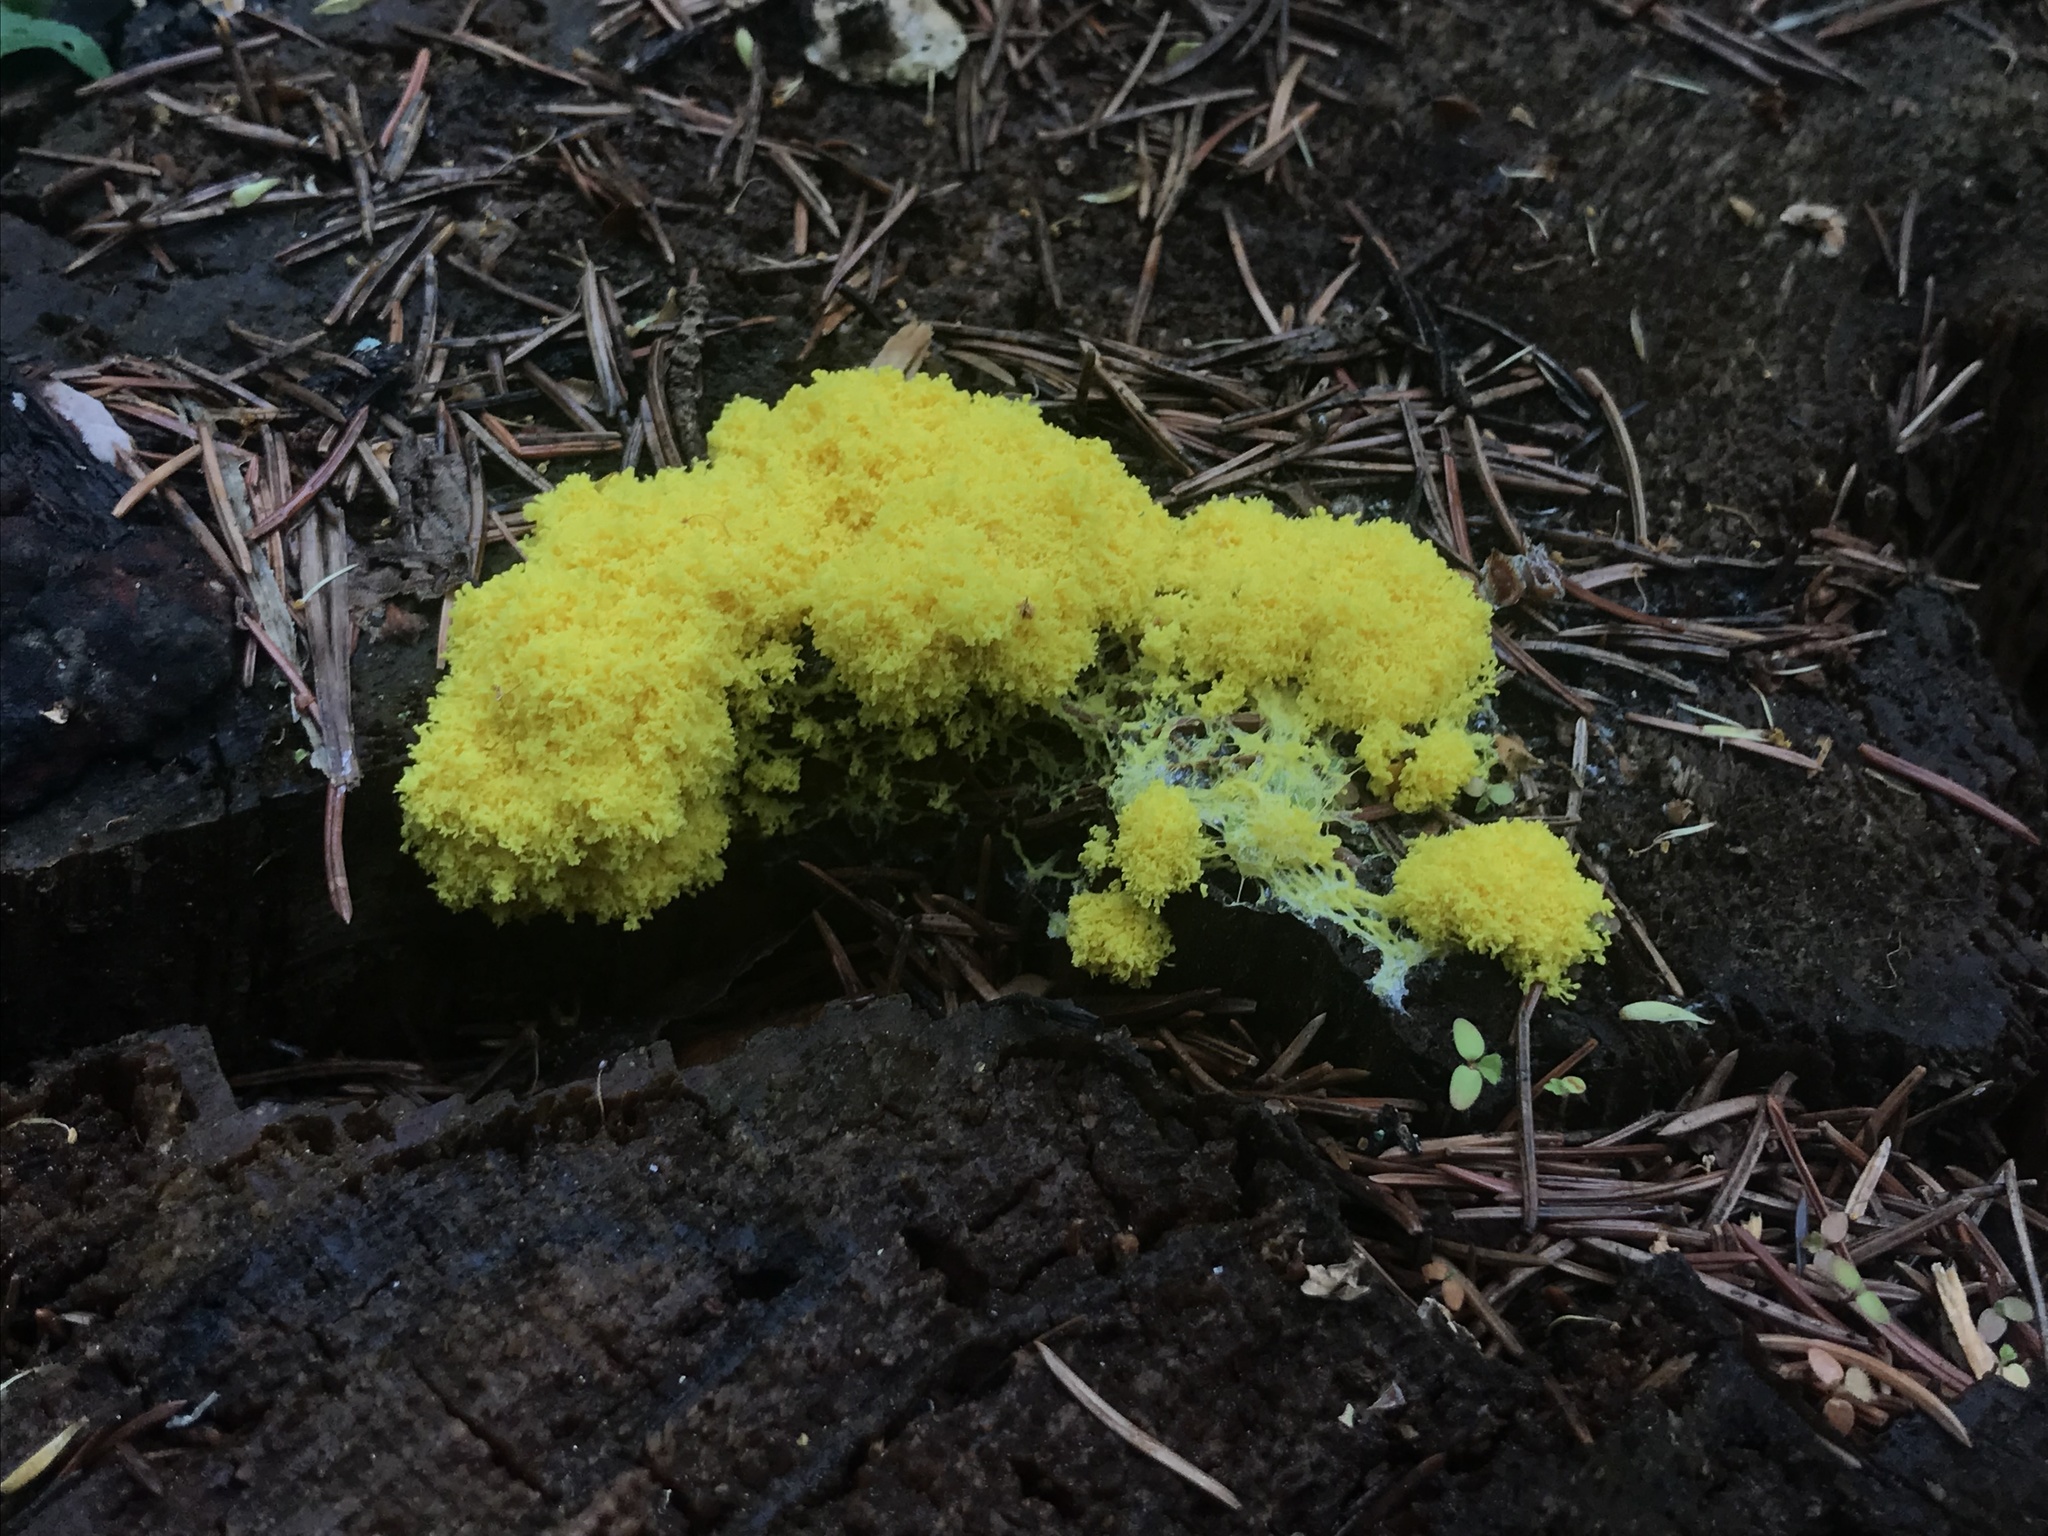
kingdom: Protozoa
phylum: Mycetozoa
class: Myxomycetes
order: Physarales
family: Physaraceae
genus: Fuligo
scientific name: Fuligo septica
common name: Dog vomit slime mold
